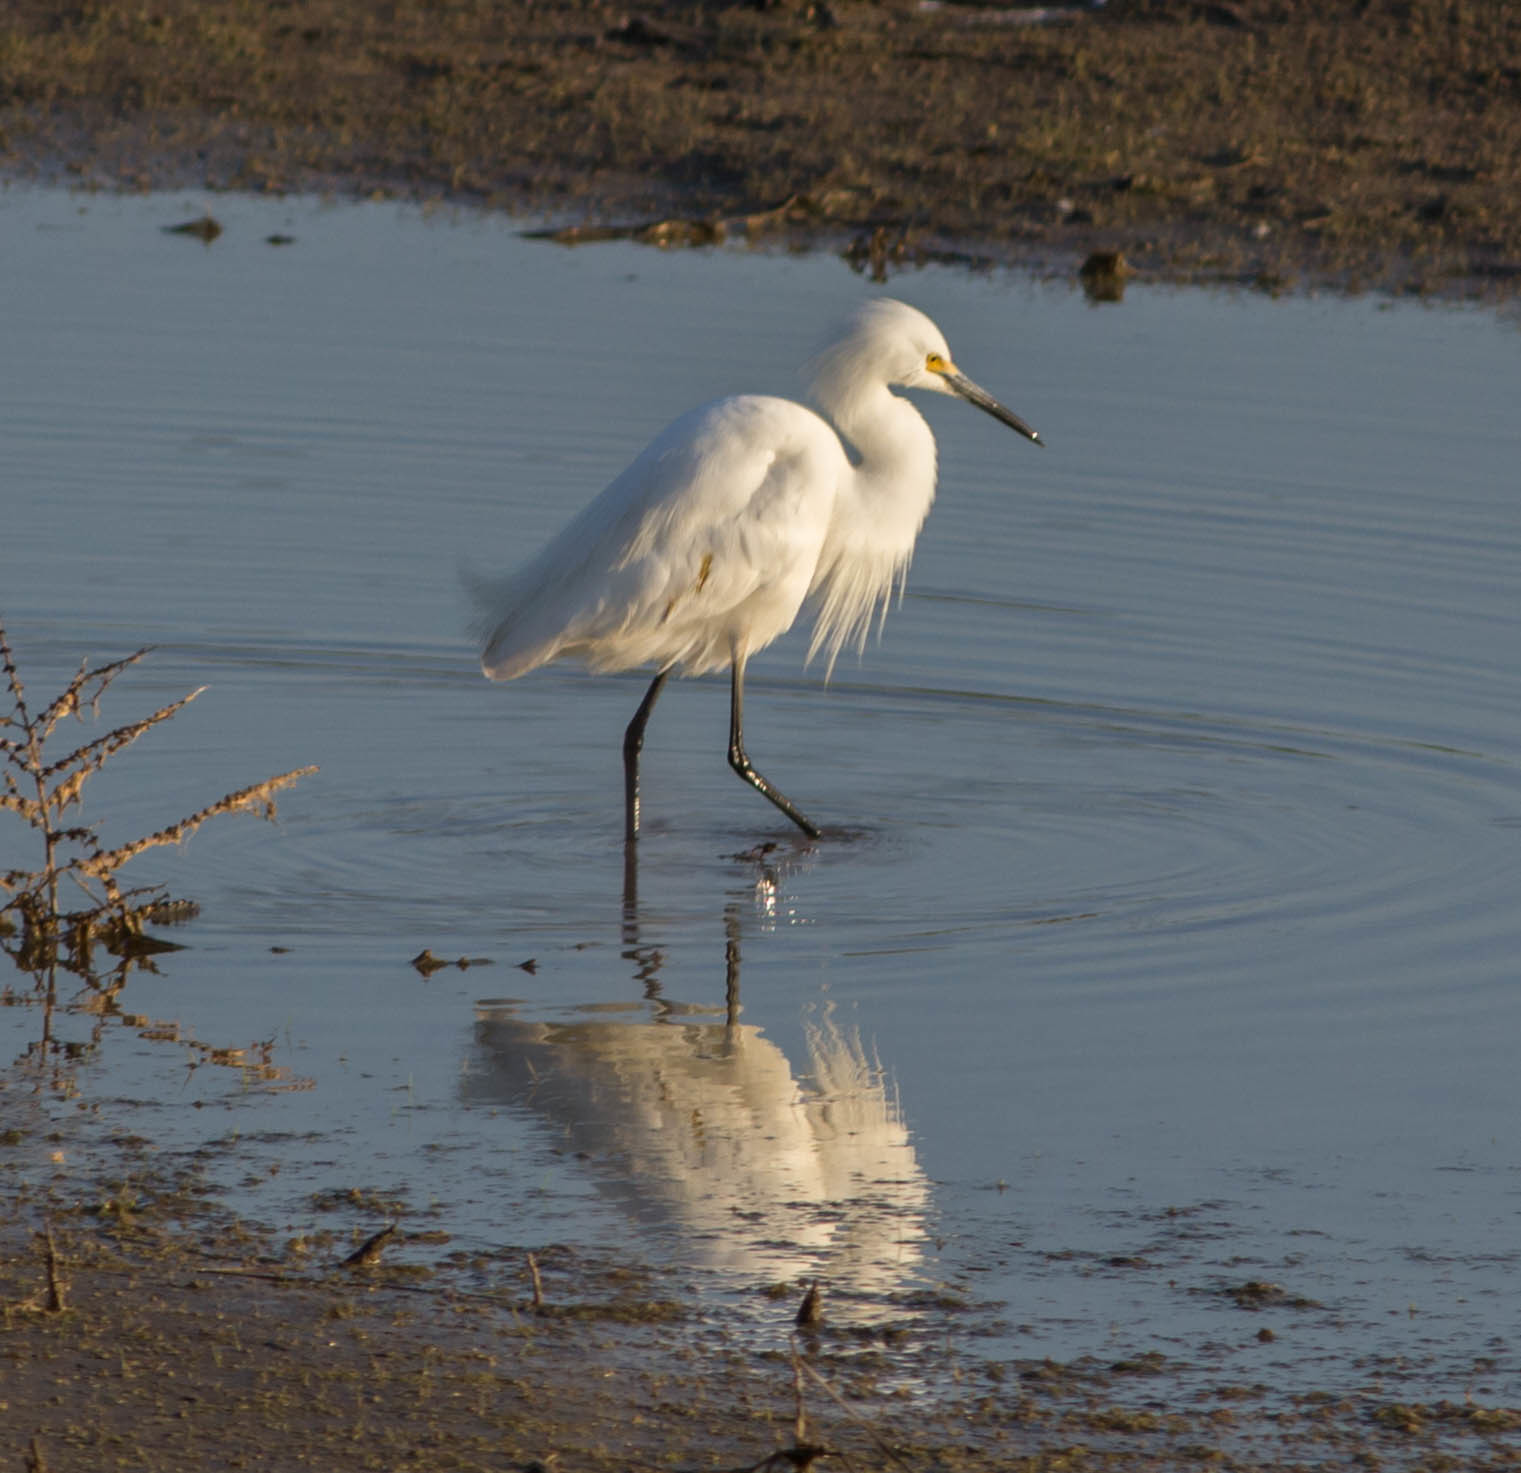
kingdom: Animalia
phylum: Chordata
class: Aves
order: Pelecaniformes
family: Ardeidae
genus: Egretta
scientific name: Egretta thula
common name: Snowy egret
